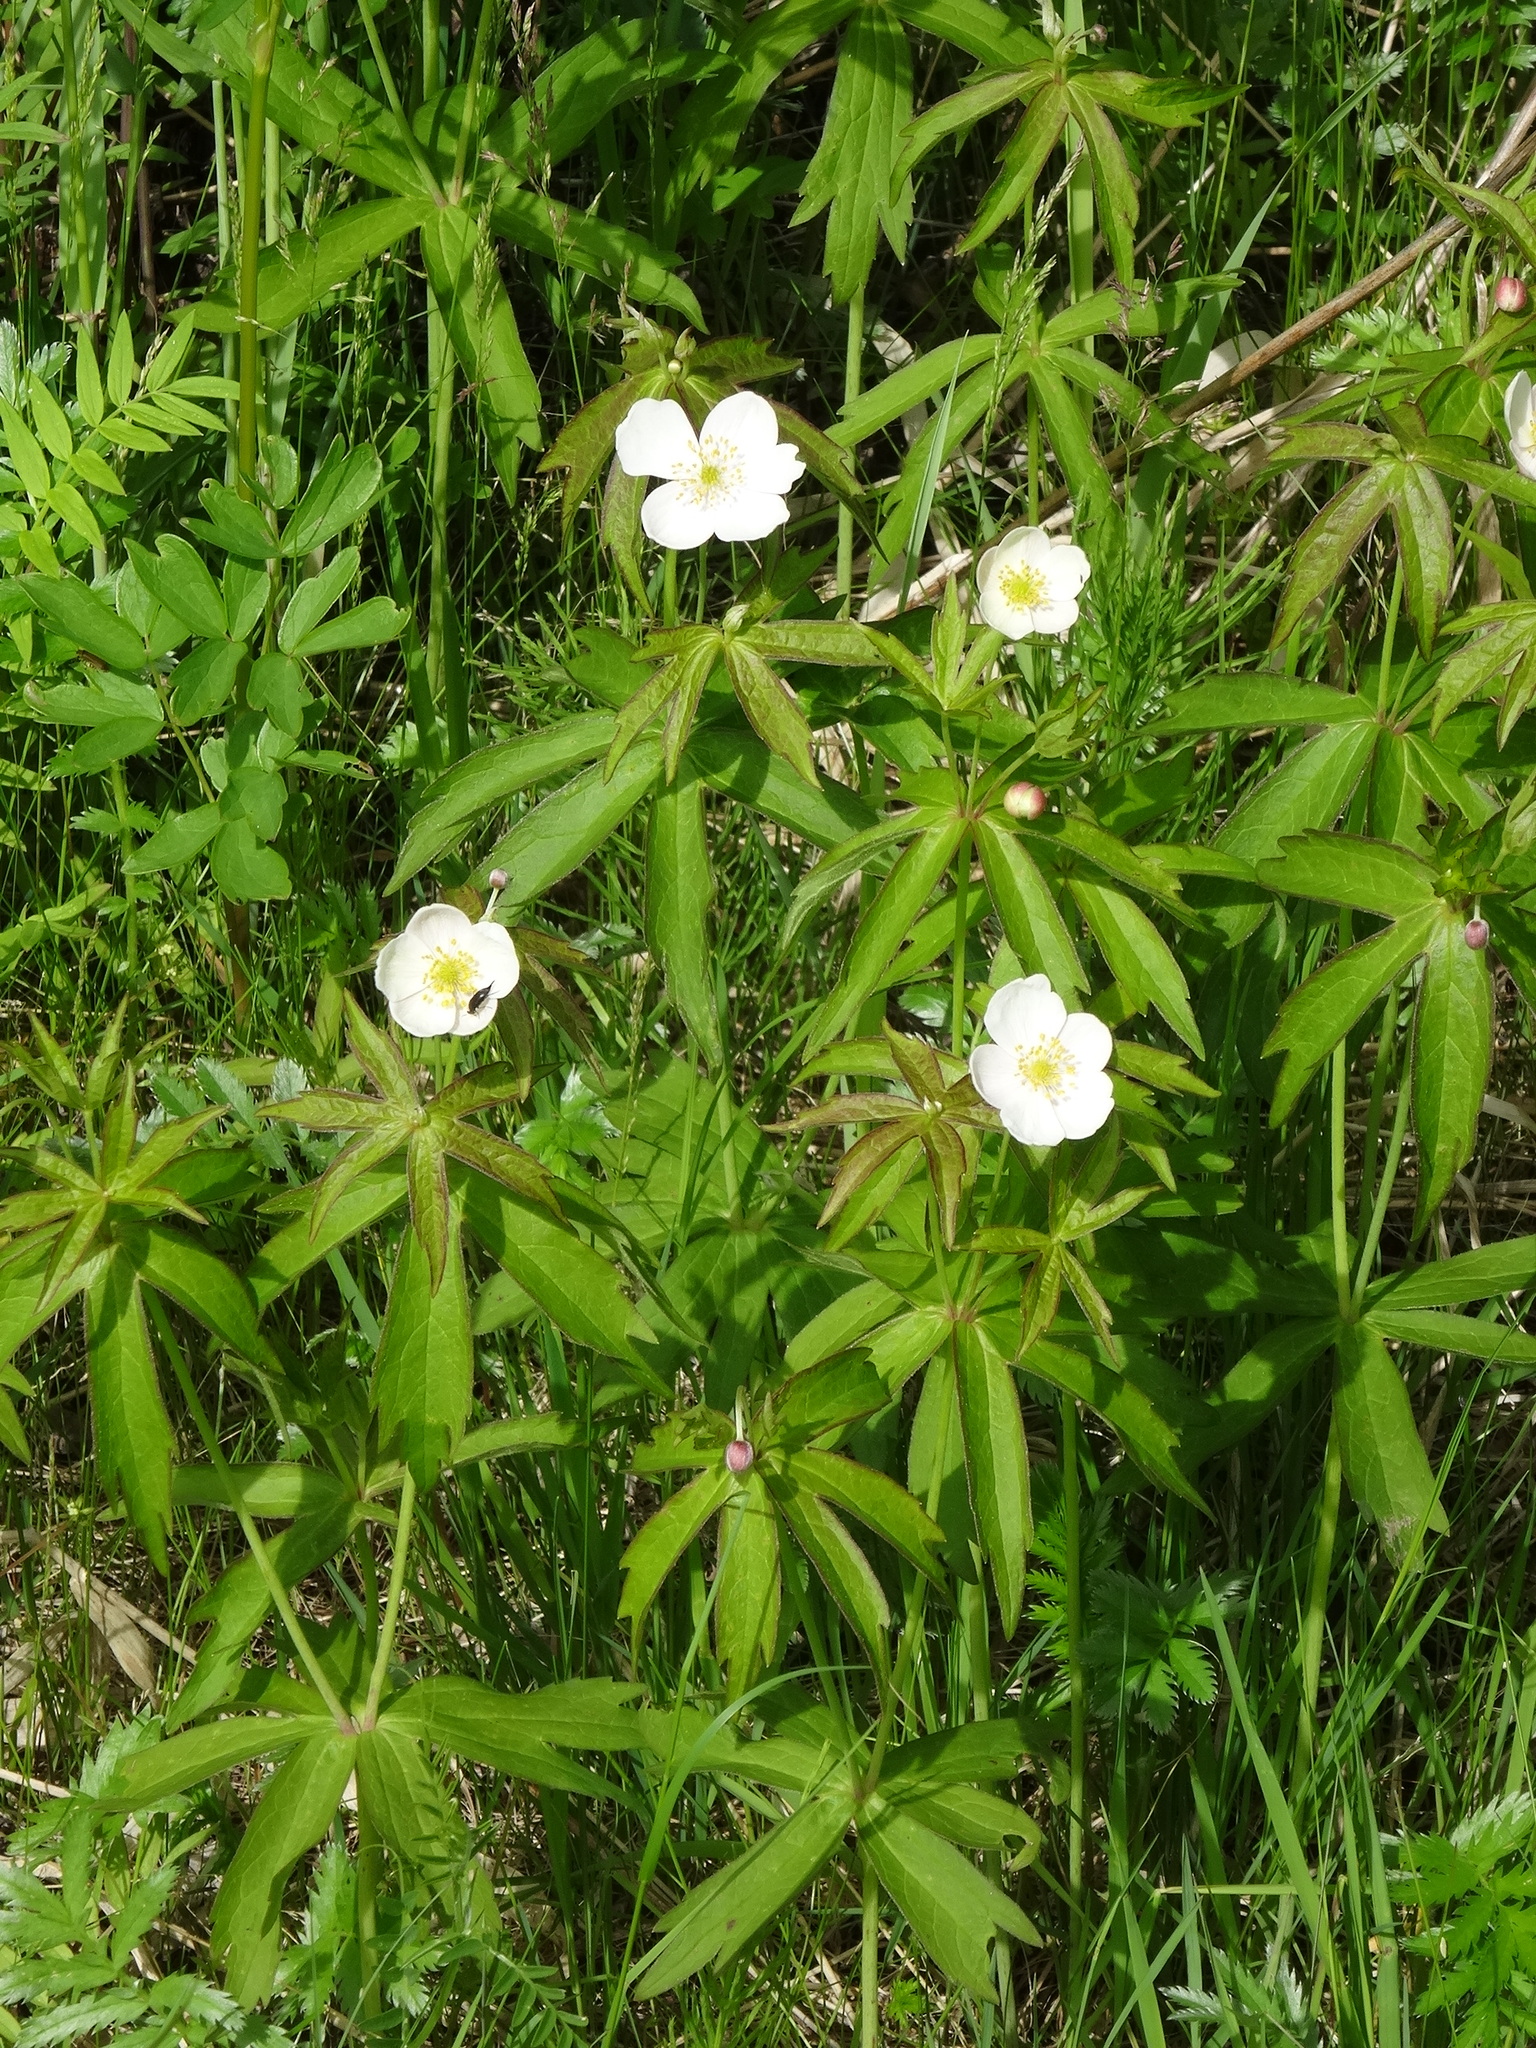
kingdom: Plantae
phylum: Tracheophyta
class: Magnoliopsida
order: Ranunculales
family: Ranunculaceae
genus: Anemonastrum
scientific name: Anemonastrum dichotomum
